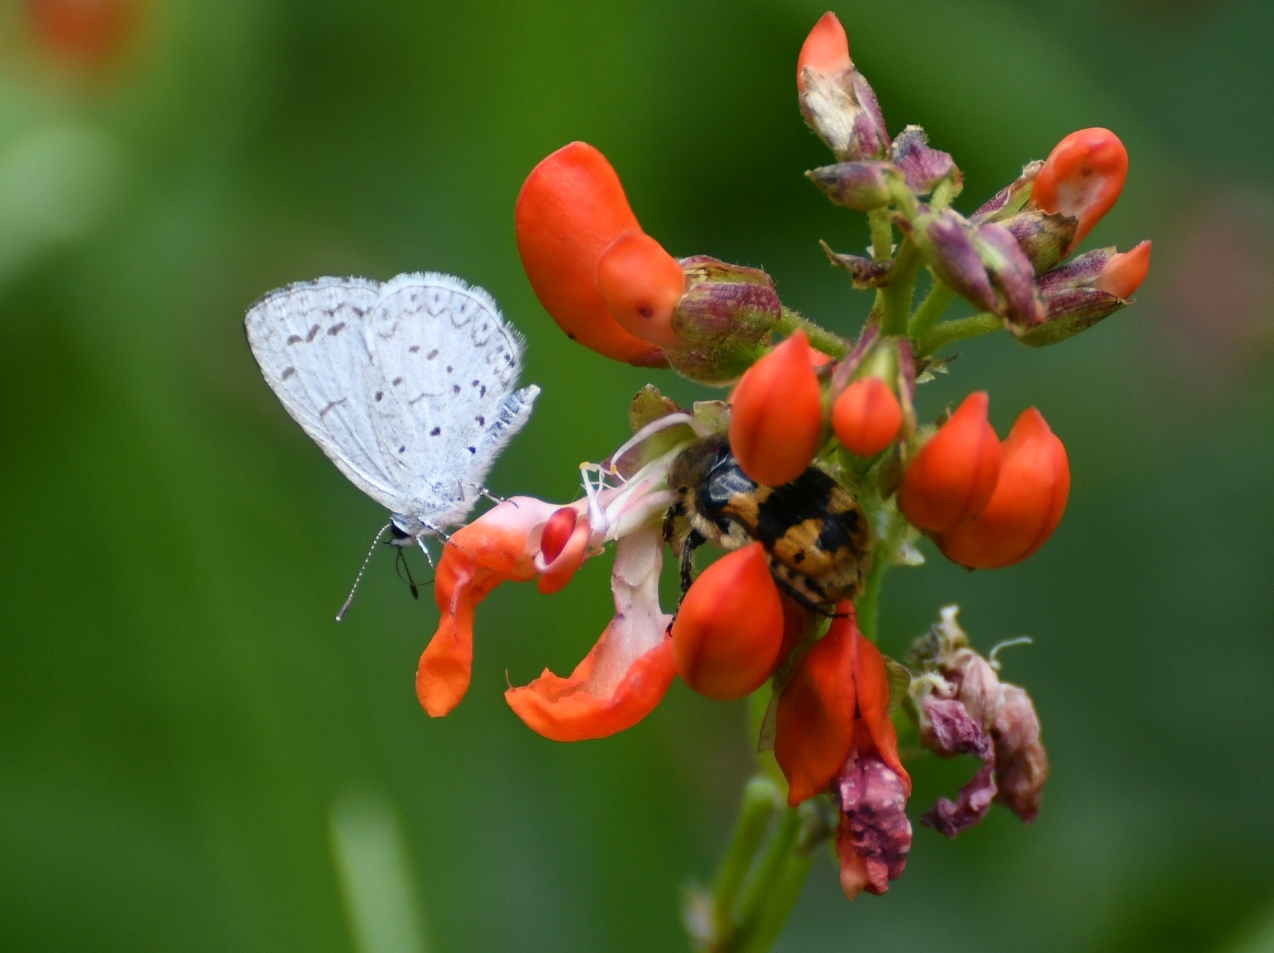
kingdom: Animalia
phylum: Arthropoda
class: Insecta
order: Lepidoptera
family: Lycaenidae
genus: Celastrina
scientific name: Celastrina ladon
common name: Spring azure
